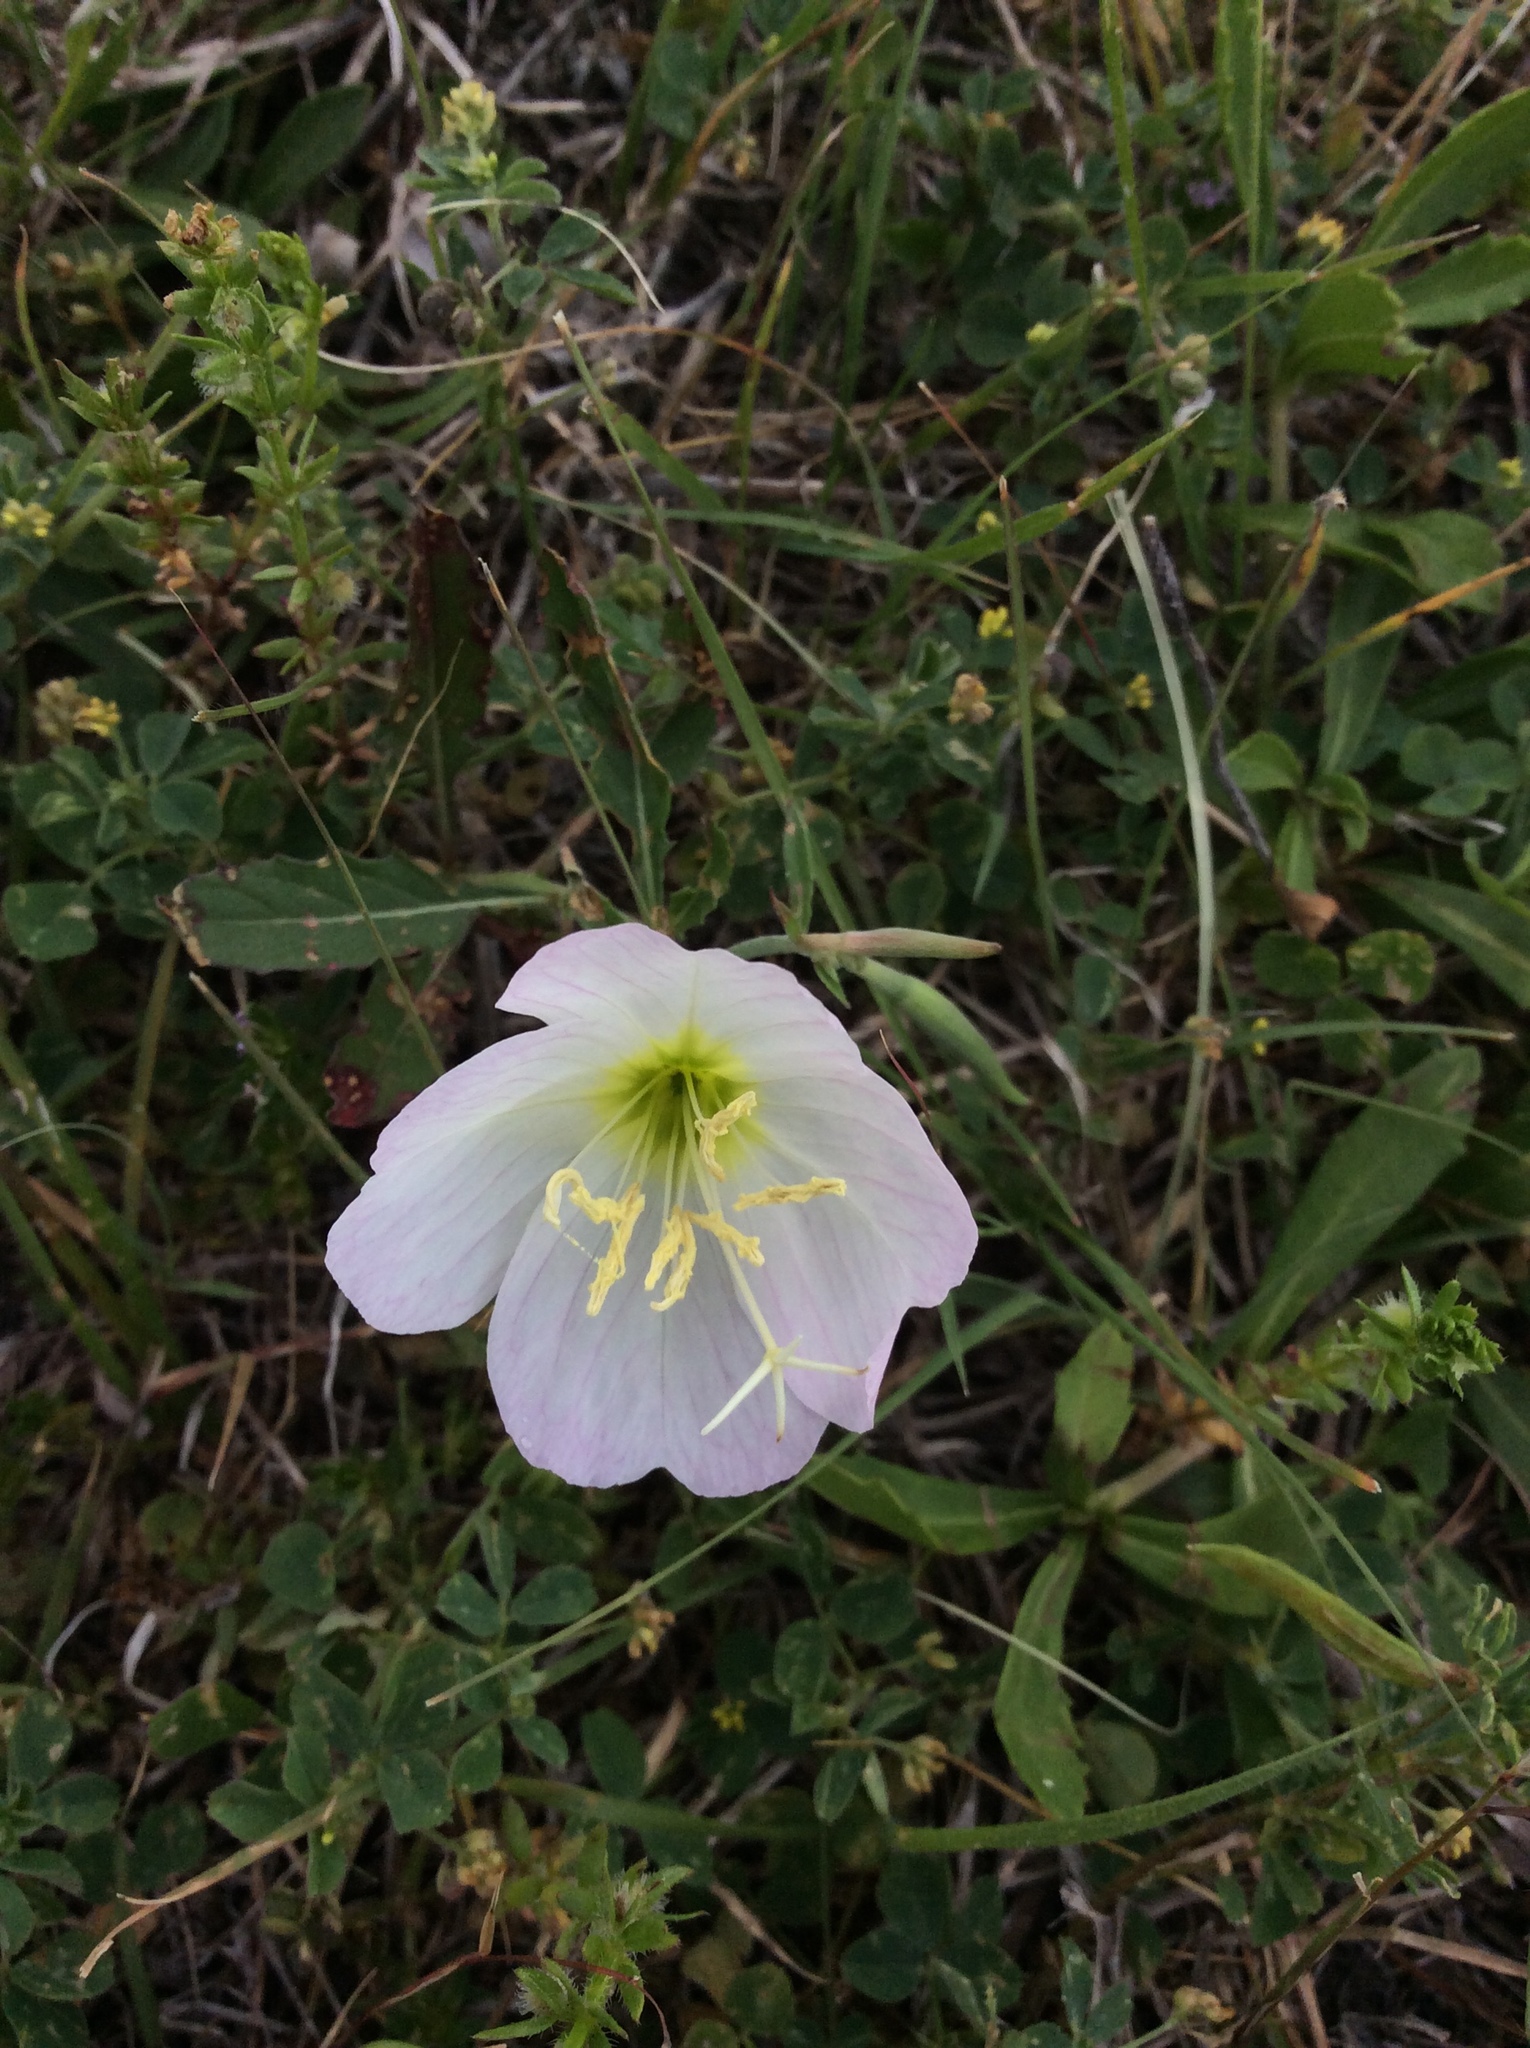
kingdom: Plantae
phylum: Tracheophyta
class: Magnoliopsida
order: Myrtales
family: Onagraceae
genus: Oenothera
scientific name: Oenothera speciosa
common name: White evening-primrose
